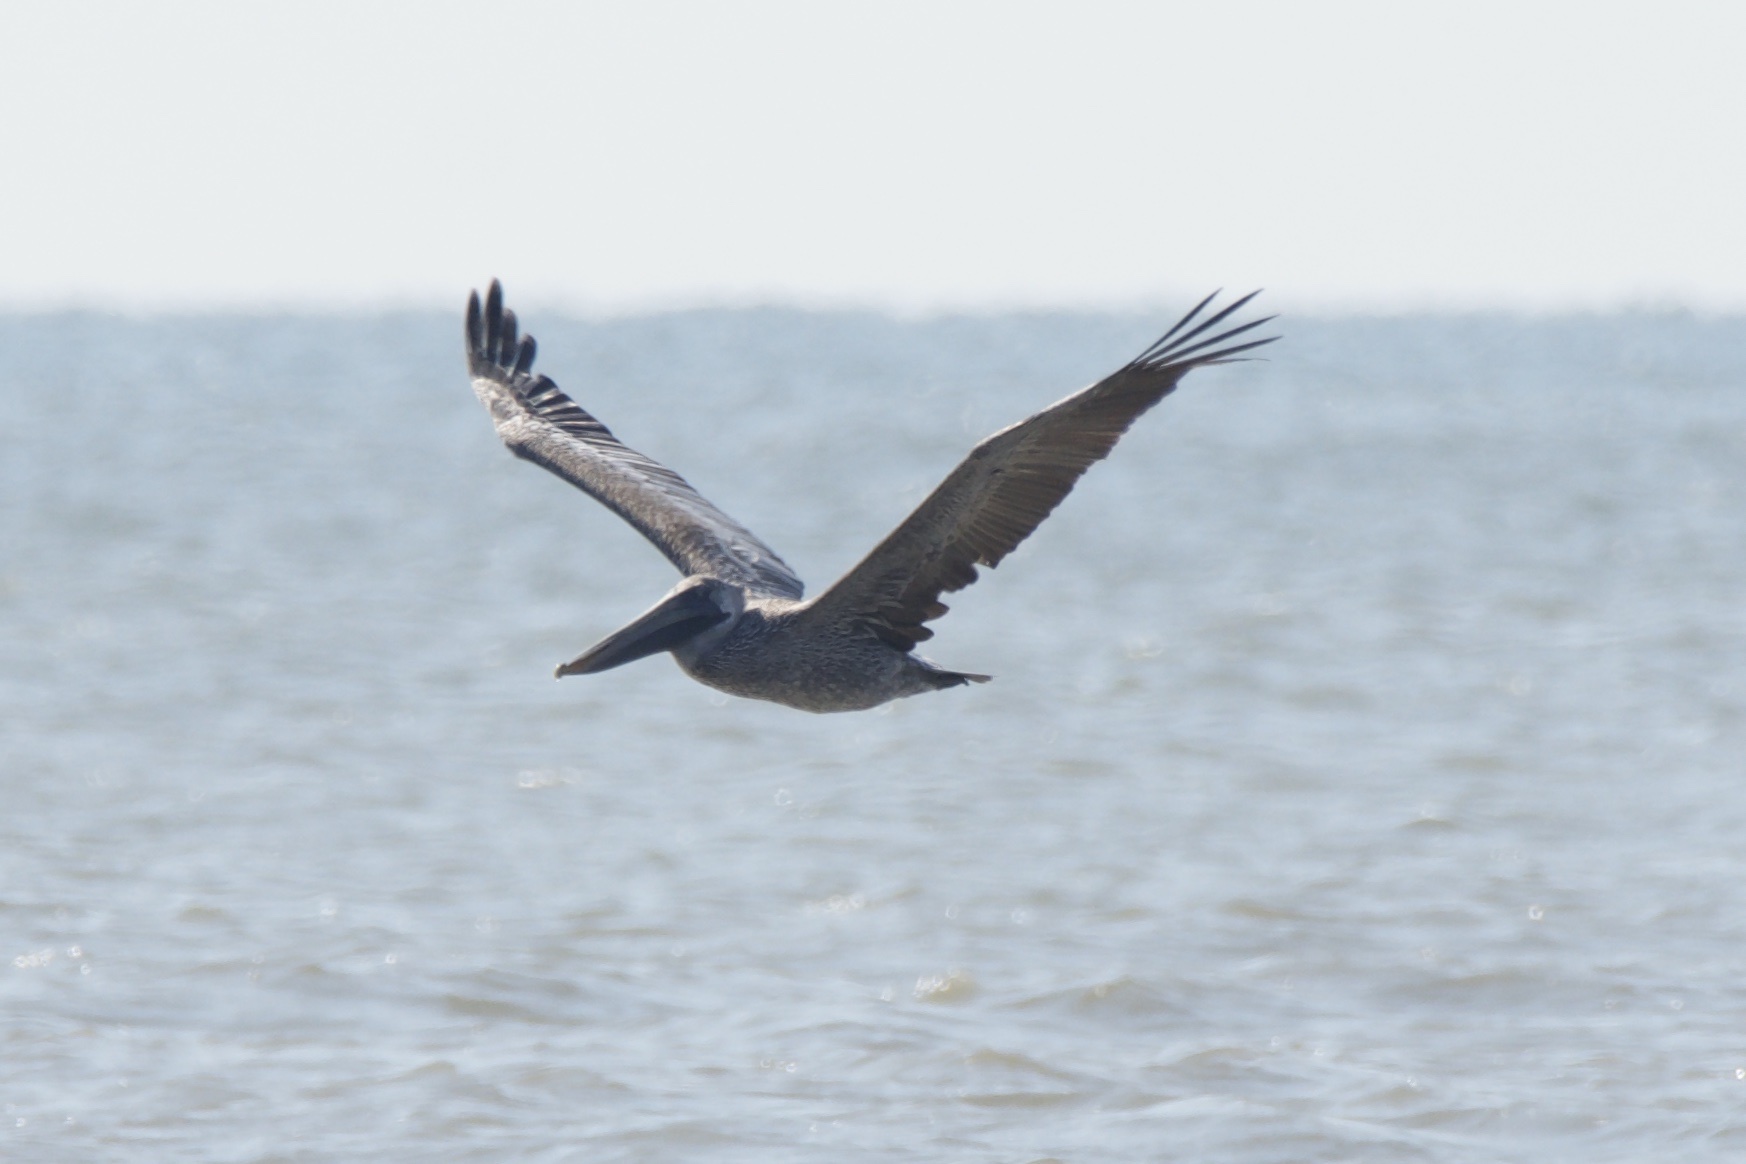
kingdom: Animalia
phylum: Chordata
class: Aves
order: Pelecaniformes
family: Pelecanidae
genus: Pelecanus
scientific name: Pelecanus occidentalis
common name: Brown pelican
